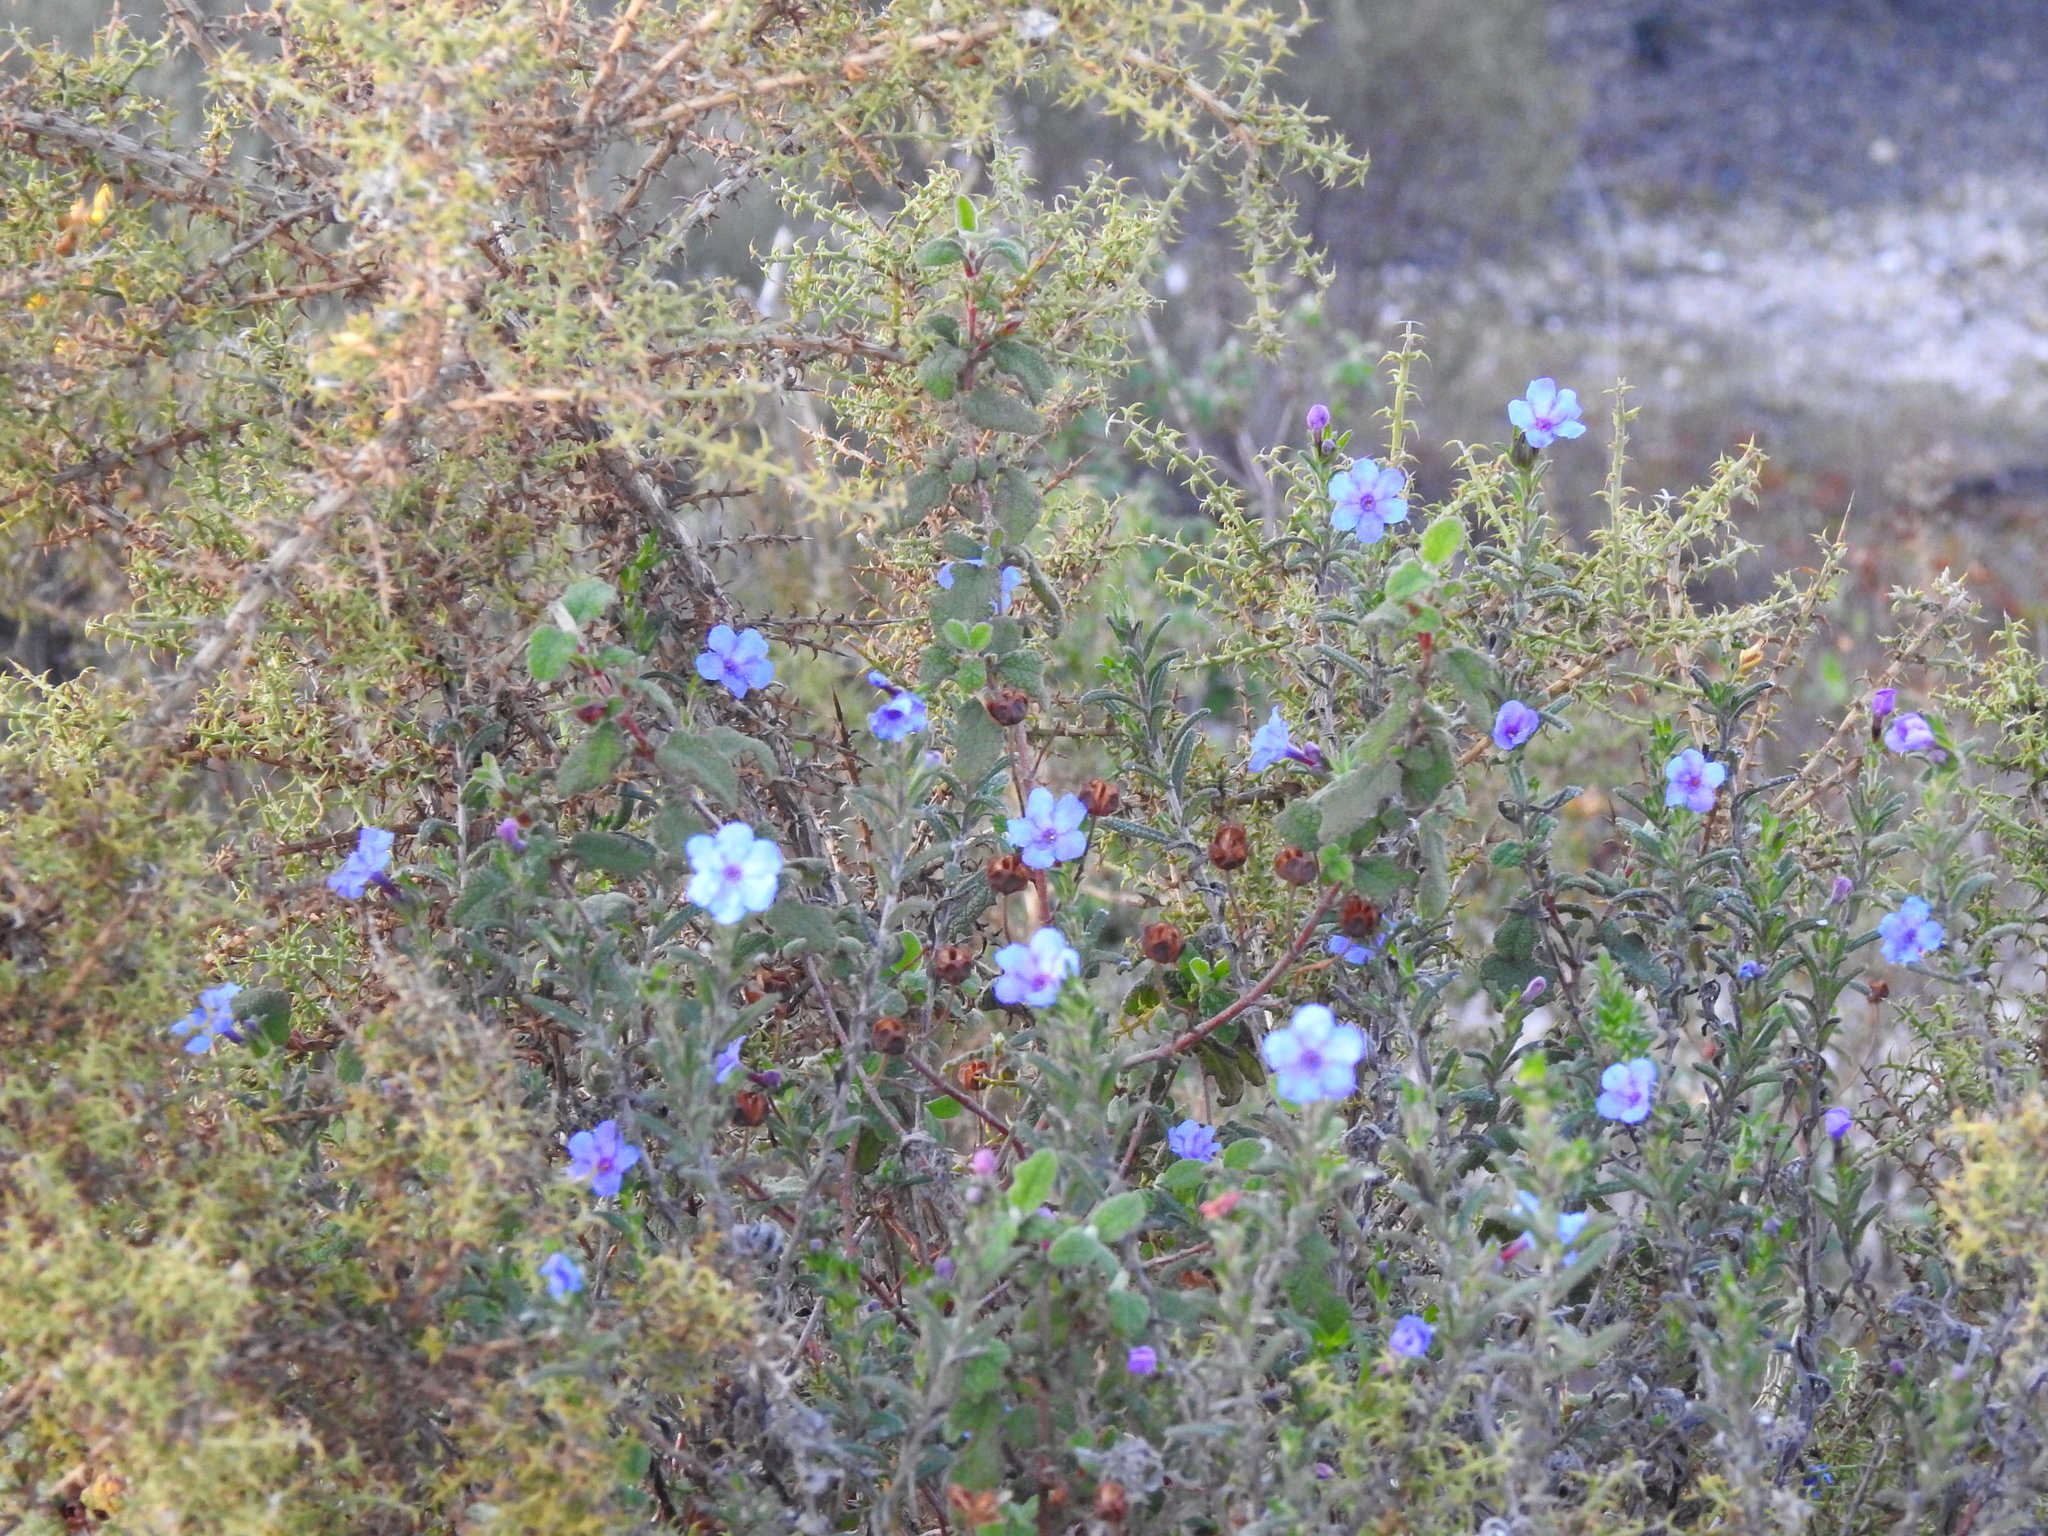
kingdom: Plantae
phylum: Tracheophyta
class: Magnoliopsida
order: Boraginales
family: Boraginaceae
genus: Glandora
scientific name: Glandora prostrata
